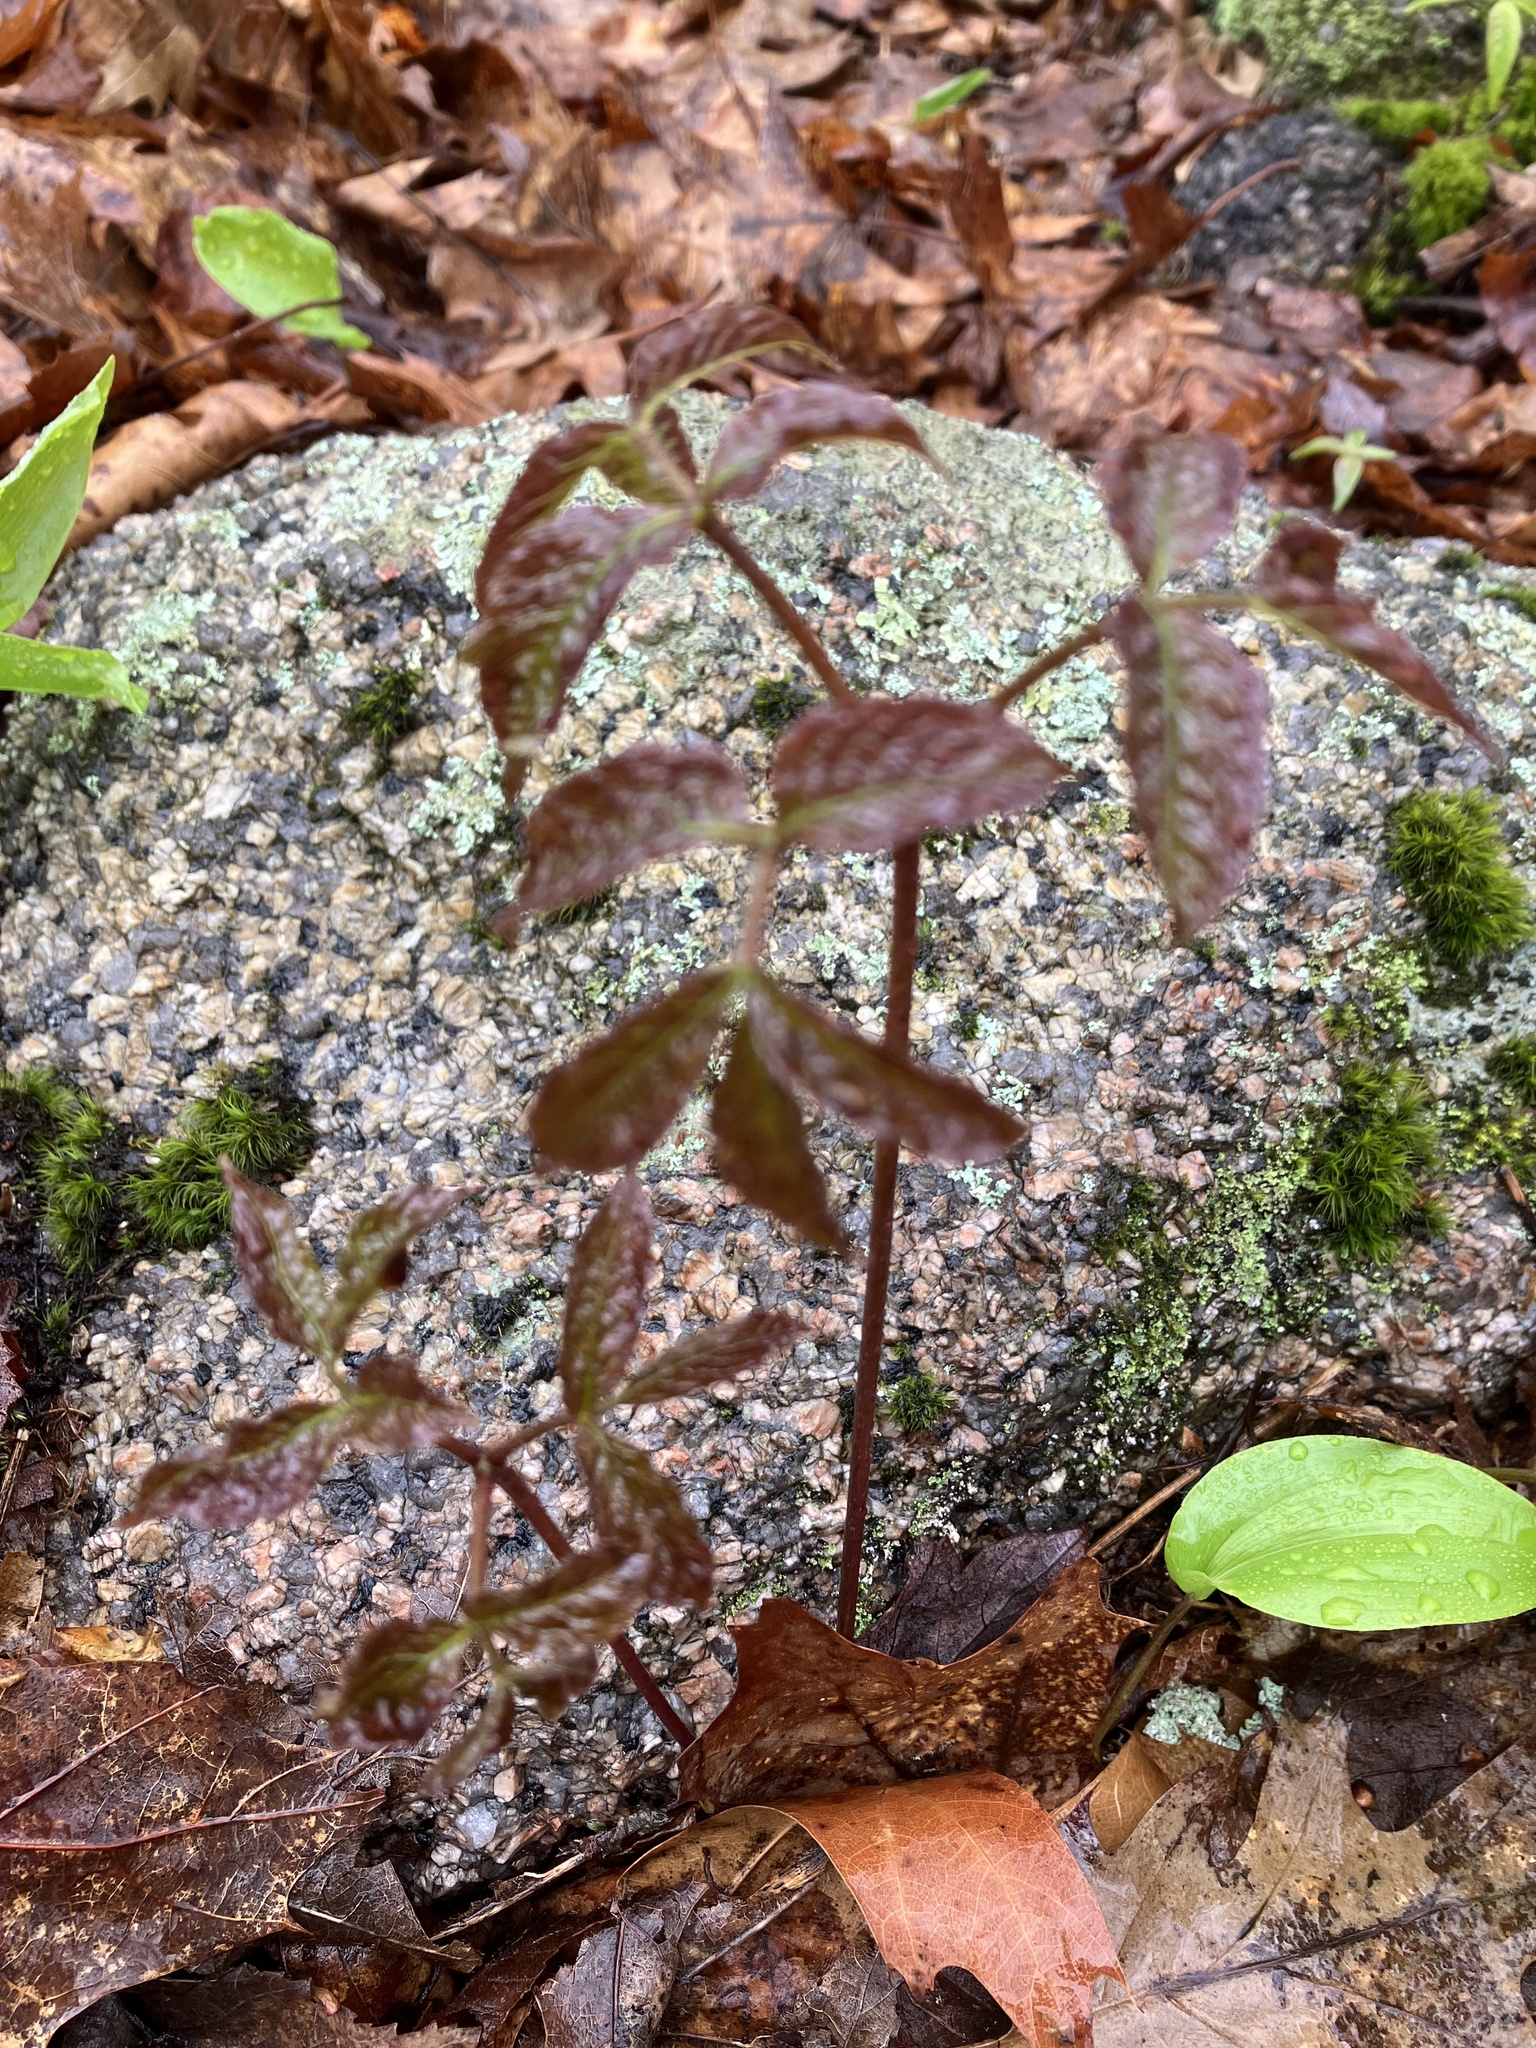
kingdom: Plantae
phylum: Tracheophyta
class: Magnoliopsida
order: Apiales
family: Araliaceae
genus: Aralia
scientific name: Aralia nudicaulis
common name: Wild sarsaparilla
